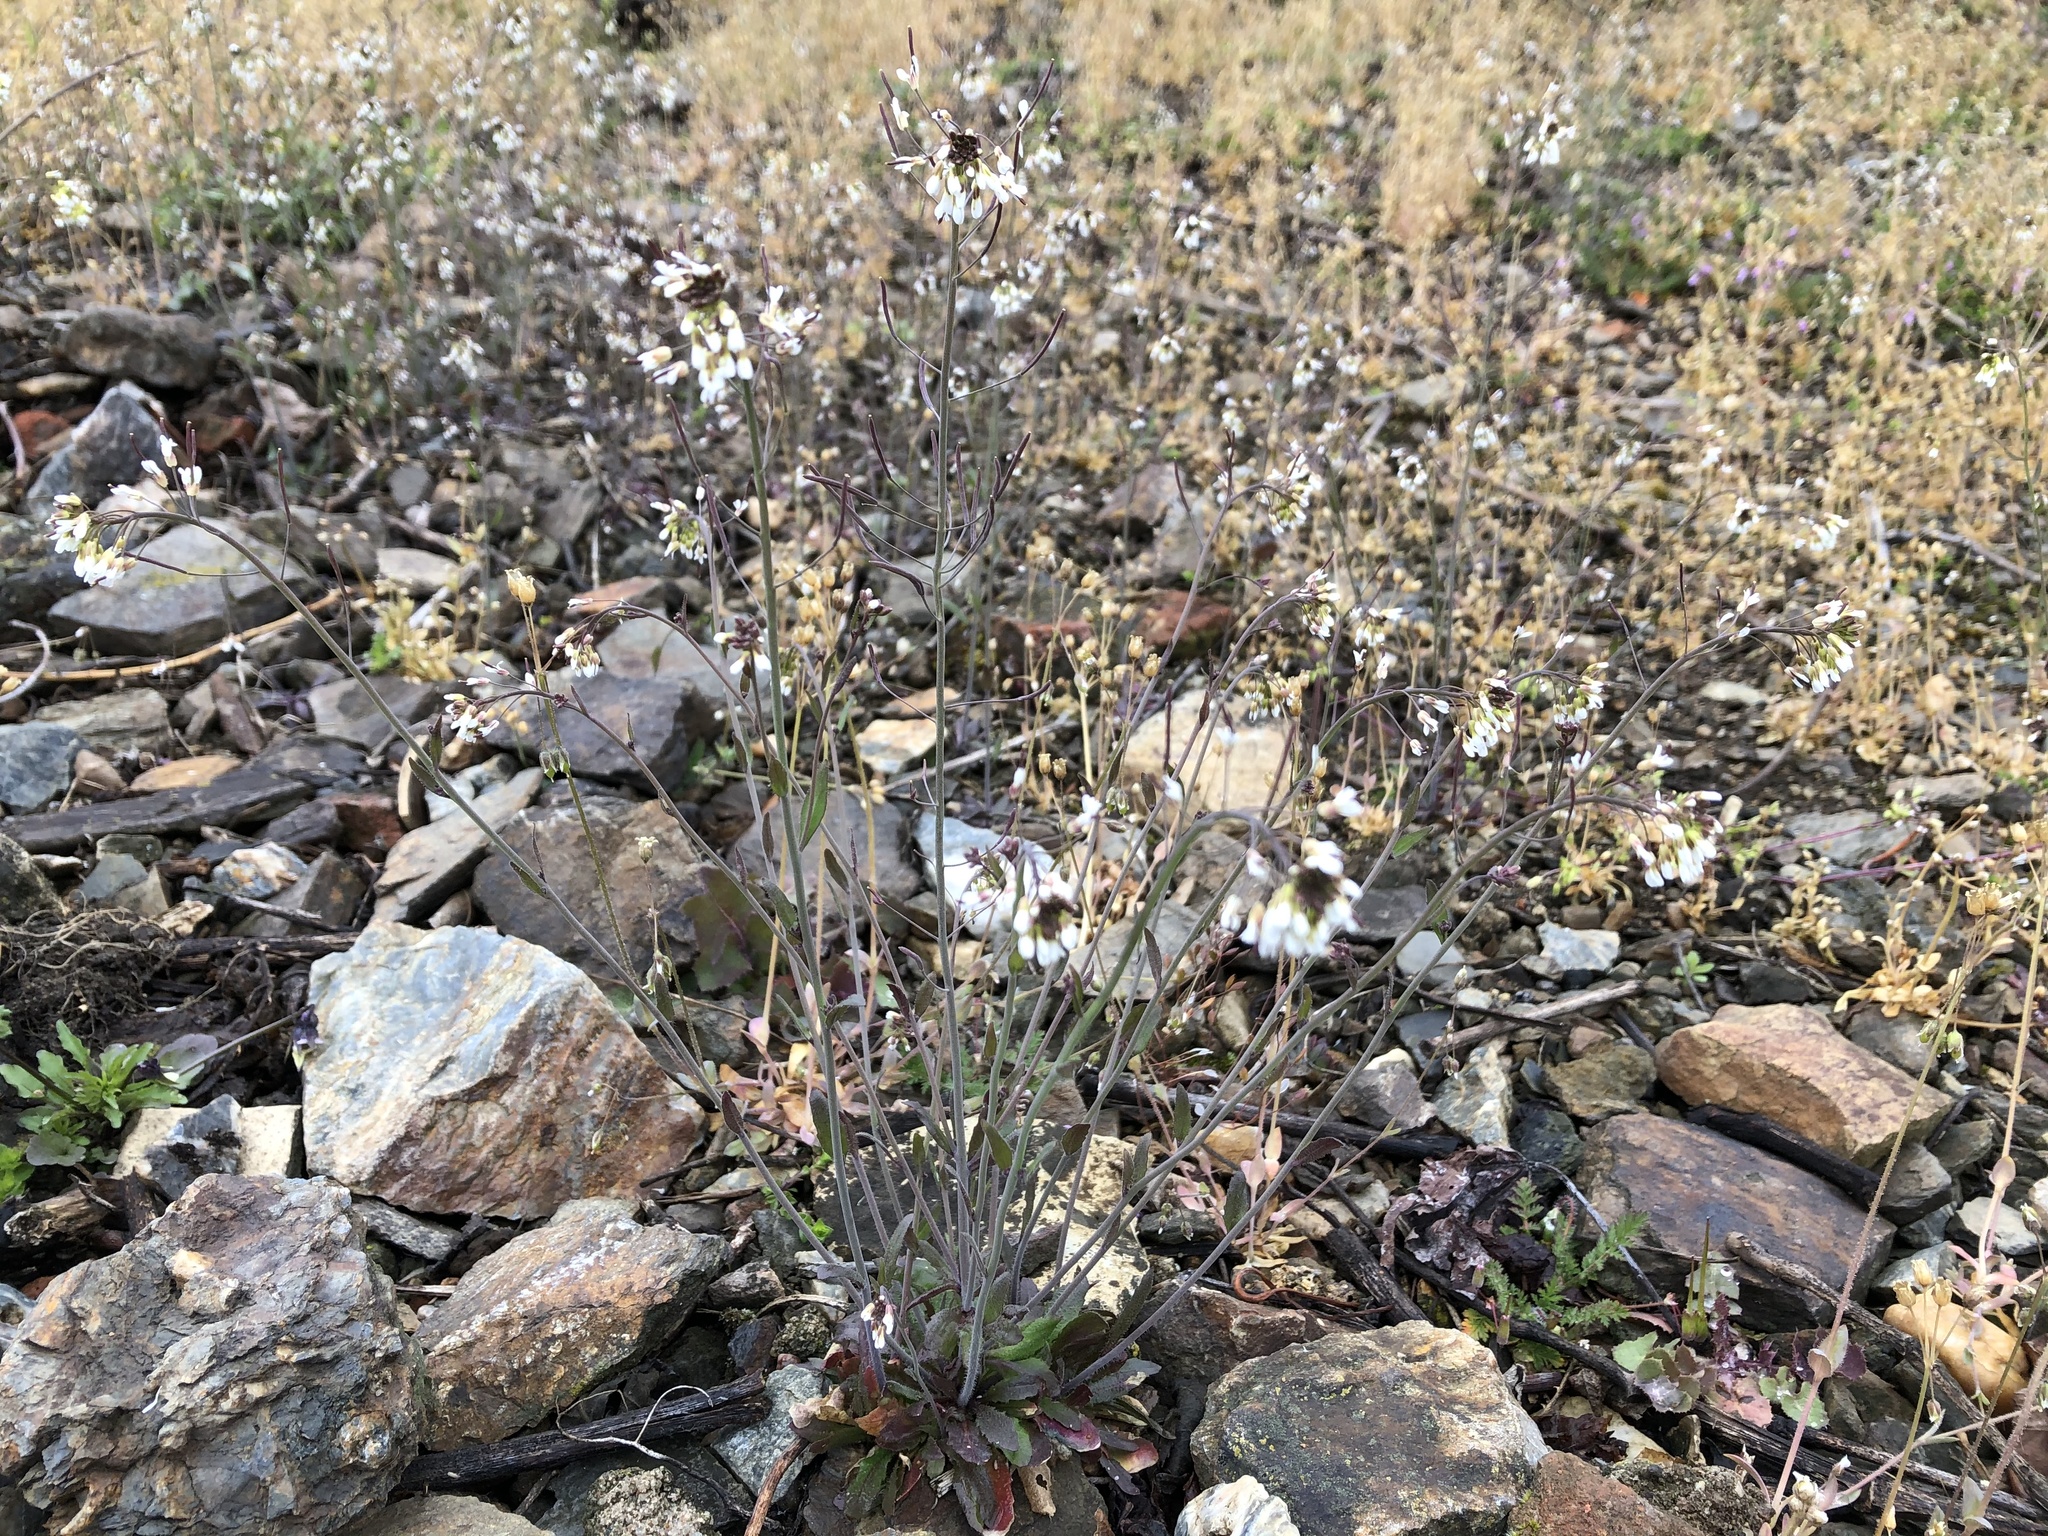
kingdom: Plantae
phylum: Tracheophyta
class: Magnoliopsida
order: Brassicales
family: Brassicaceae
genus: Arabidopsis
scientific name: Arabidopsis thaliana
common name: Thale cress
